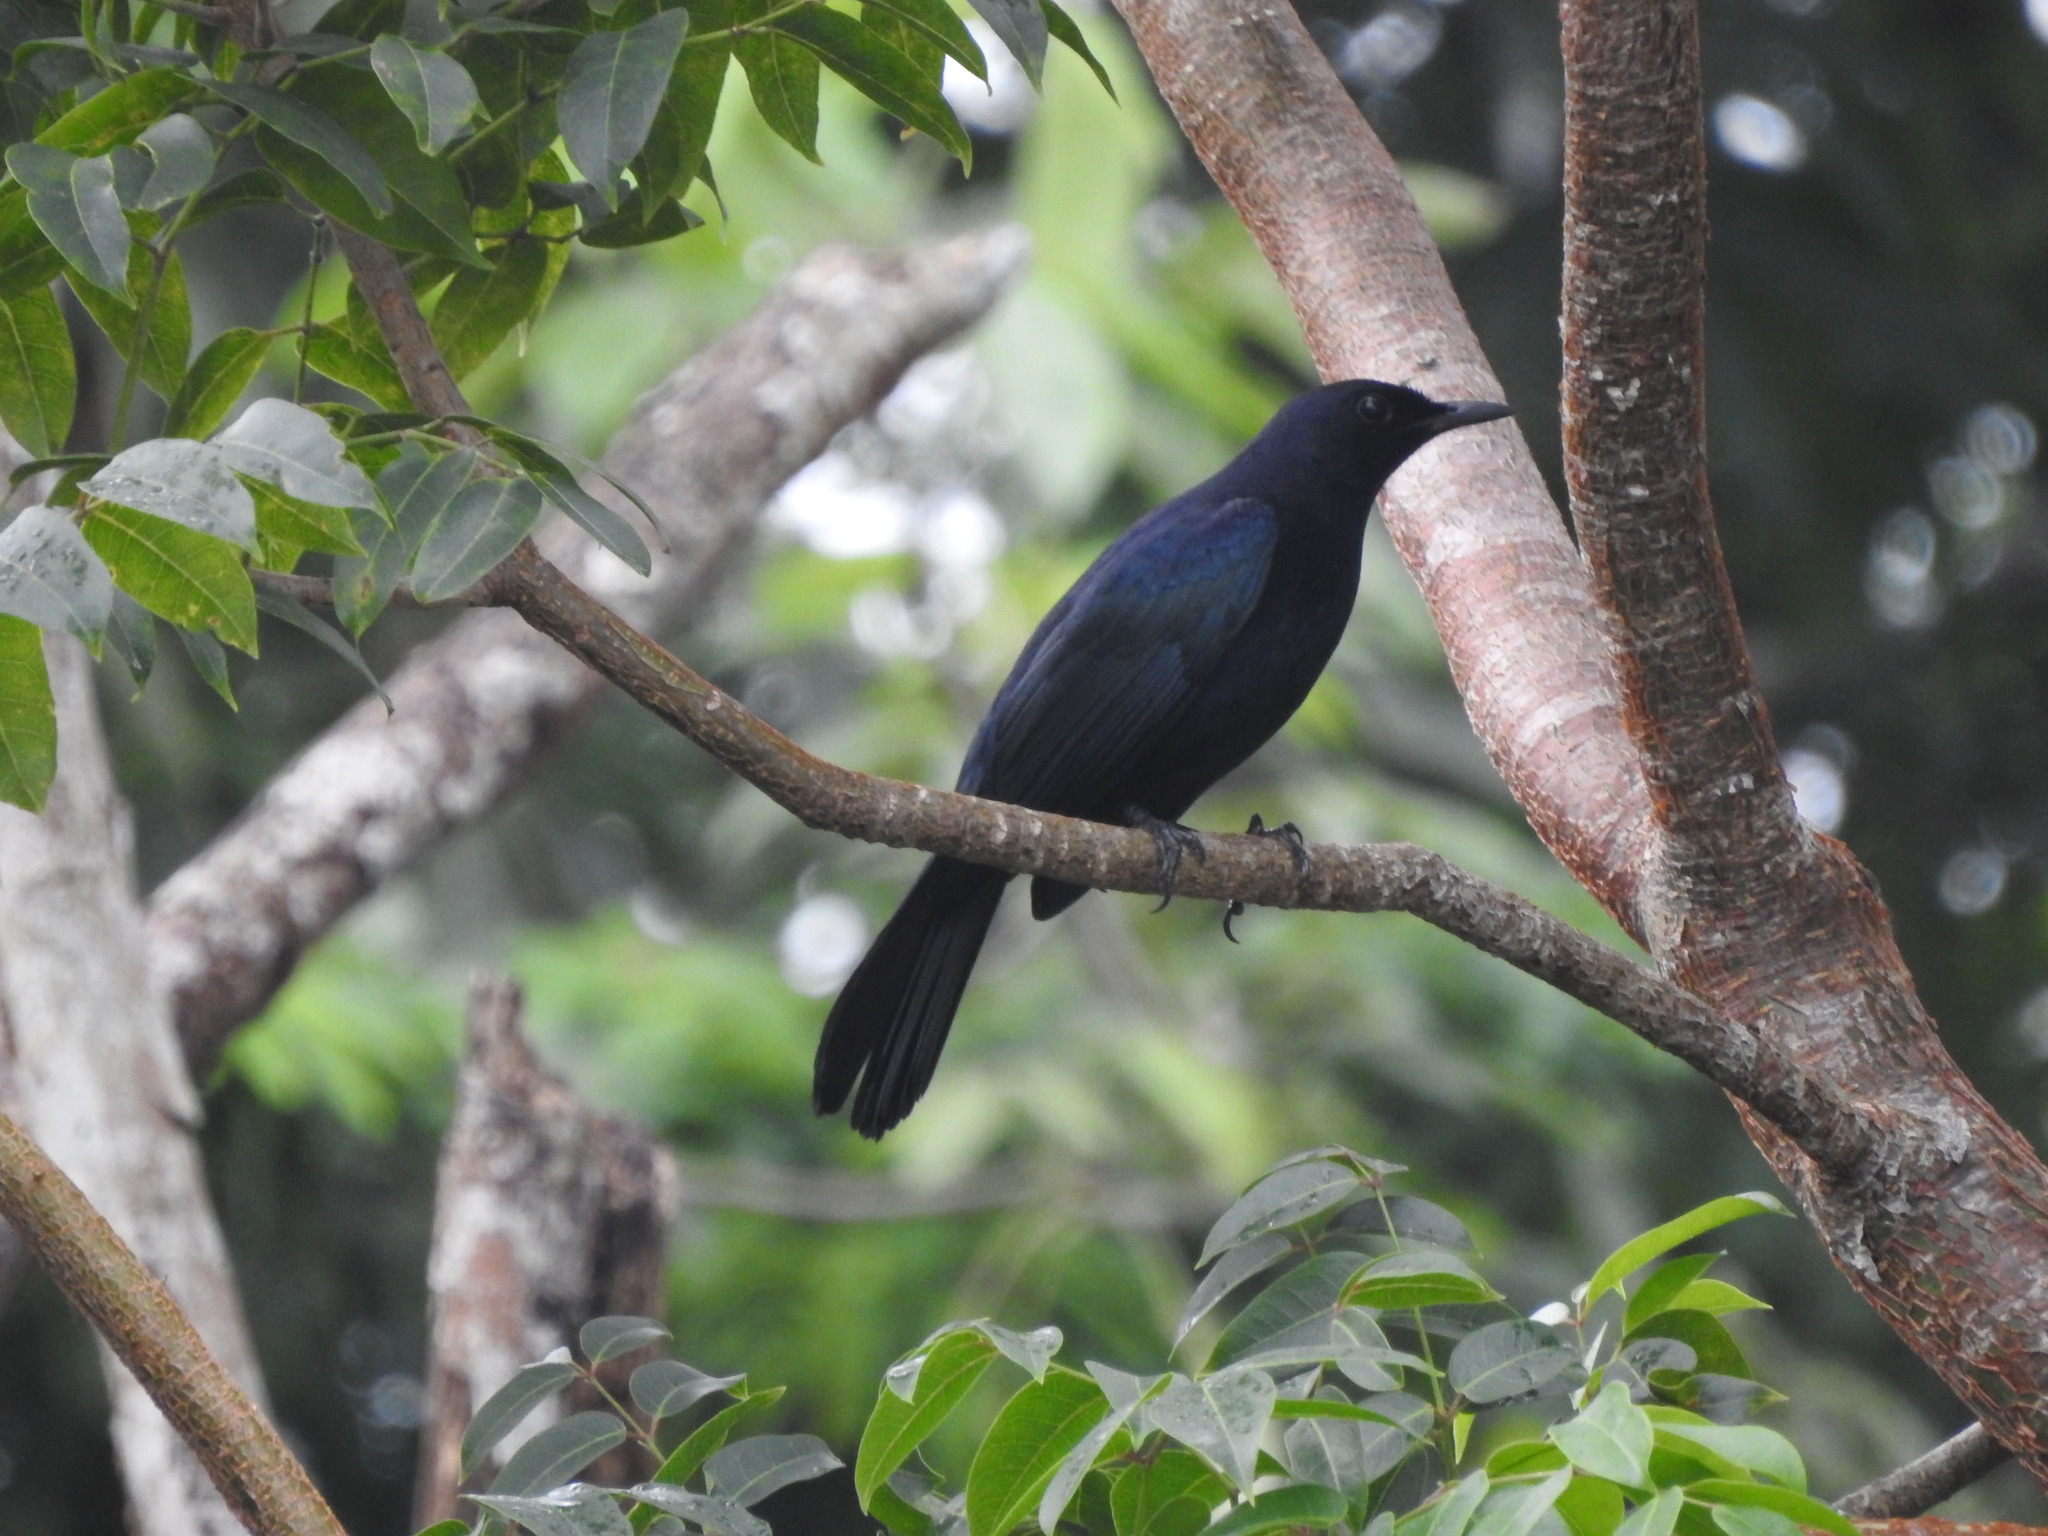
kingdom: Animalia
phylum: Chordata
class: Aves
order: Passeriformes
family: Mimidae
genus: Melanoptila
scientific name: Melanoptila glabrirostris
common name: Black catbird
